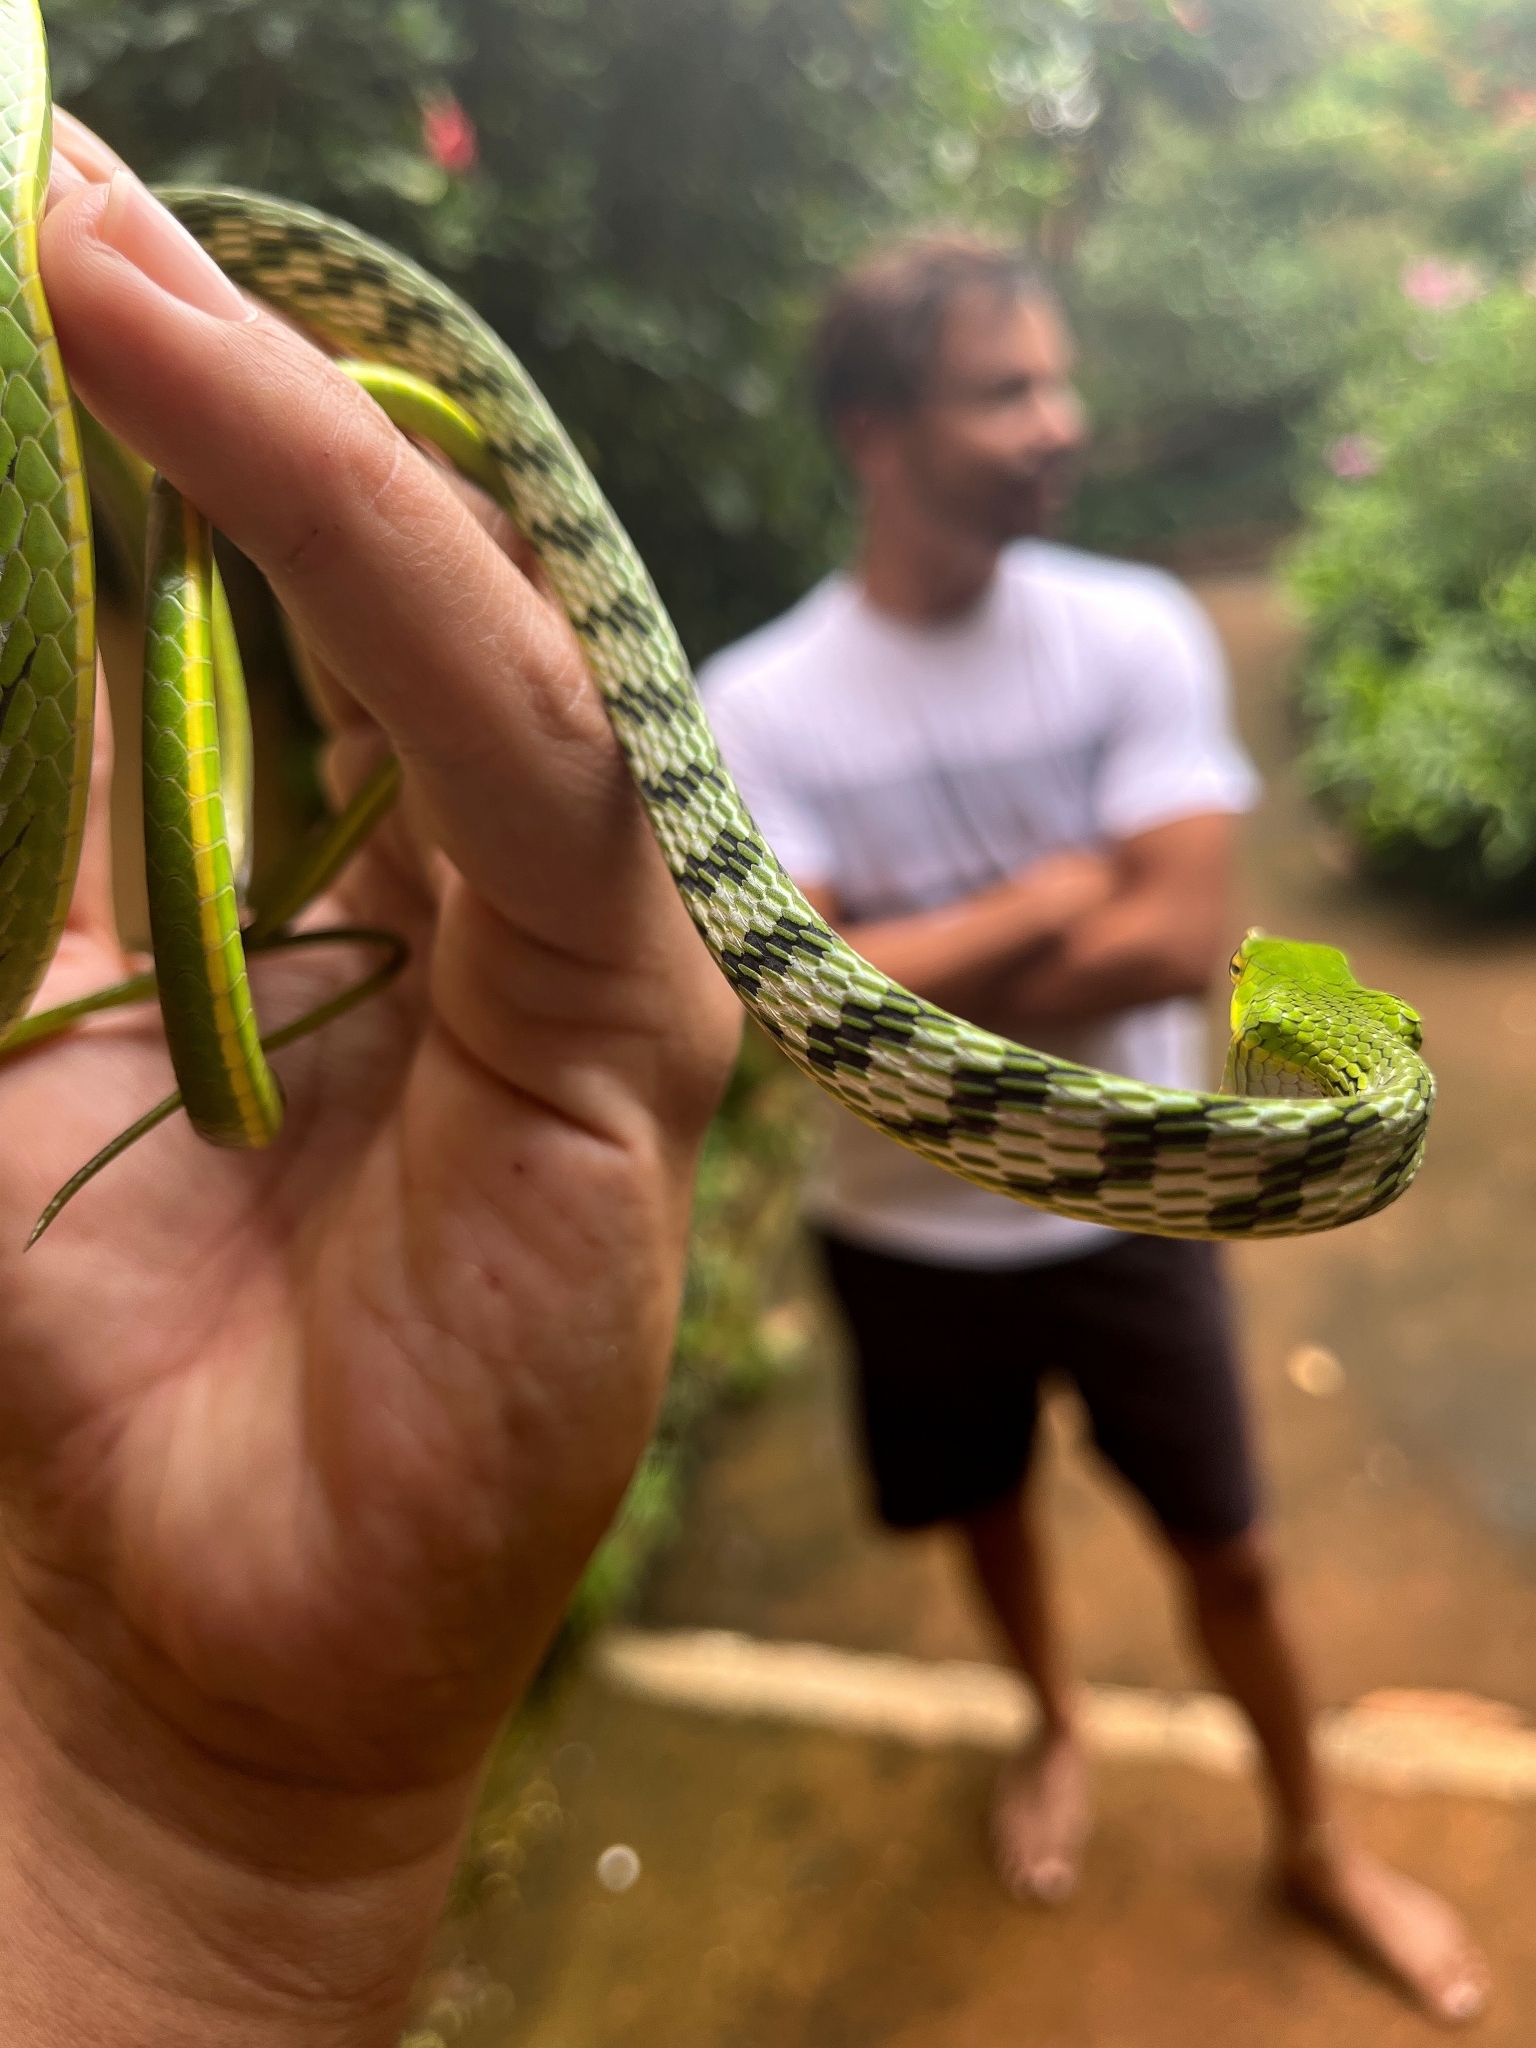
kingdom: Animalia
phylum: Chordata
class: Squamata
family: Colubridae
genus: Ahaetulla
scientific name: Ahaetulla oxyrhyncha
